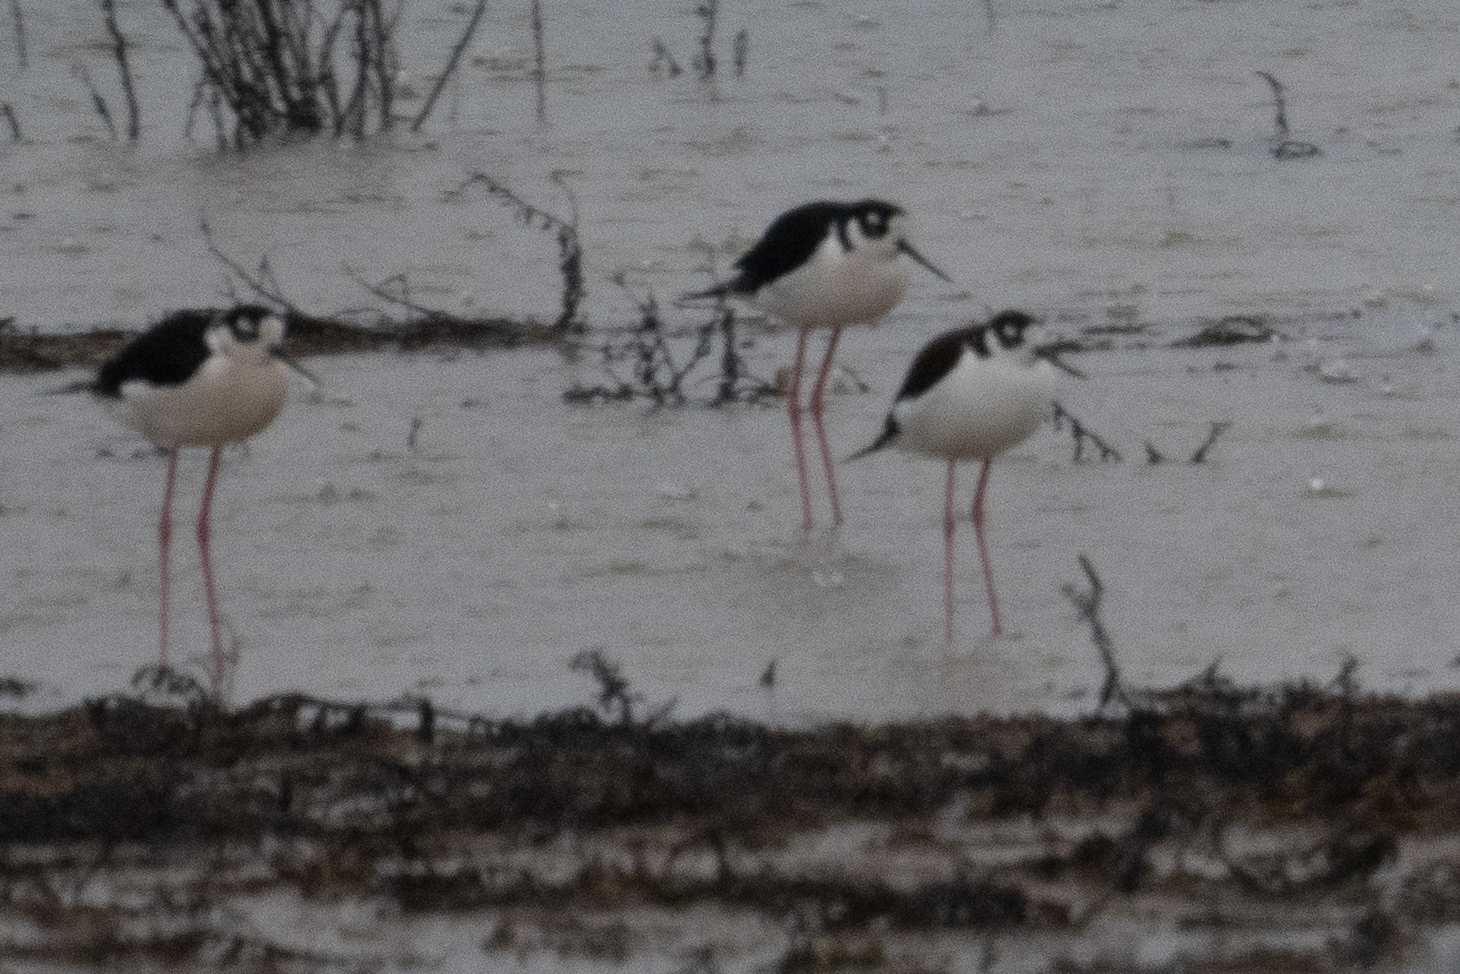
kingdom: Animalia
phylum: Chordata
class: Aves
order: Charadriiformes
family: Recurvirostridae
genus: Himantopus
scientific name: Himantopus mexicanus
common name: Black-necked stilt
